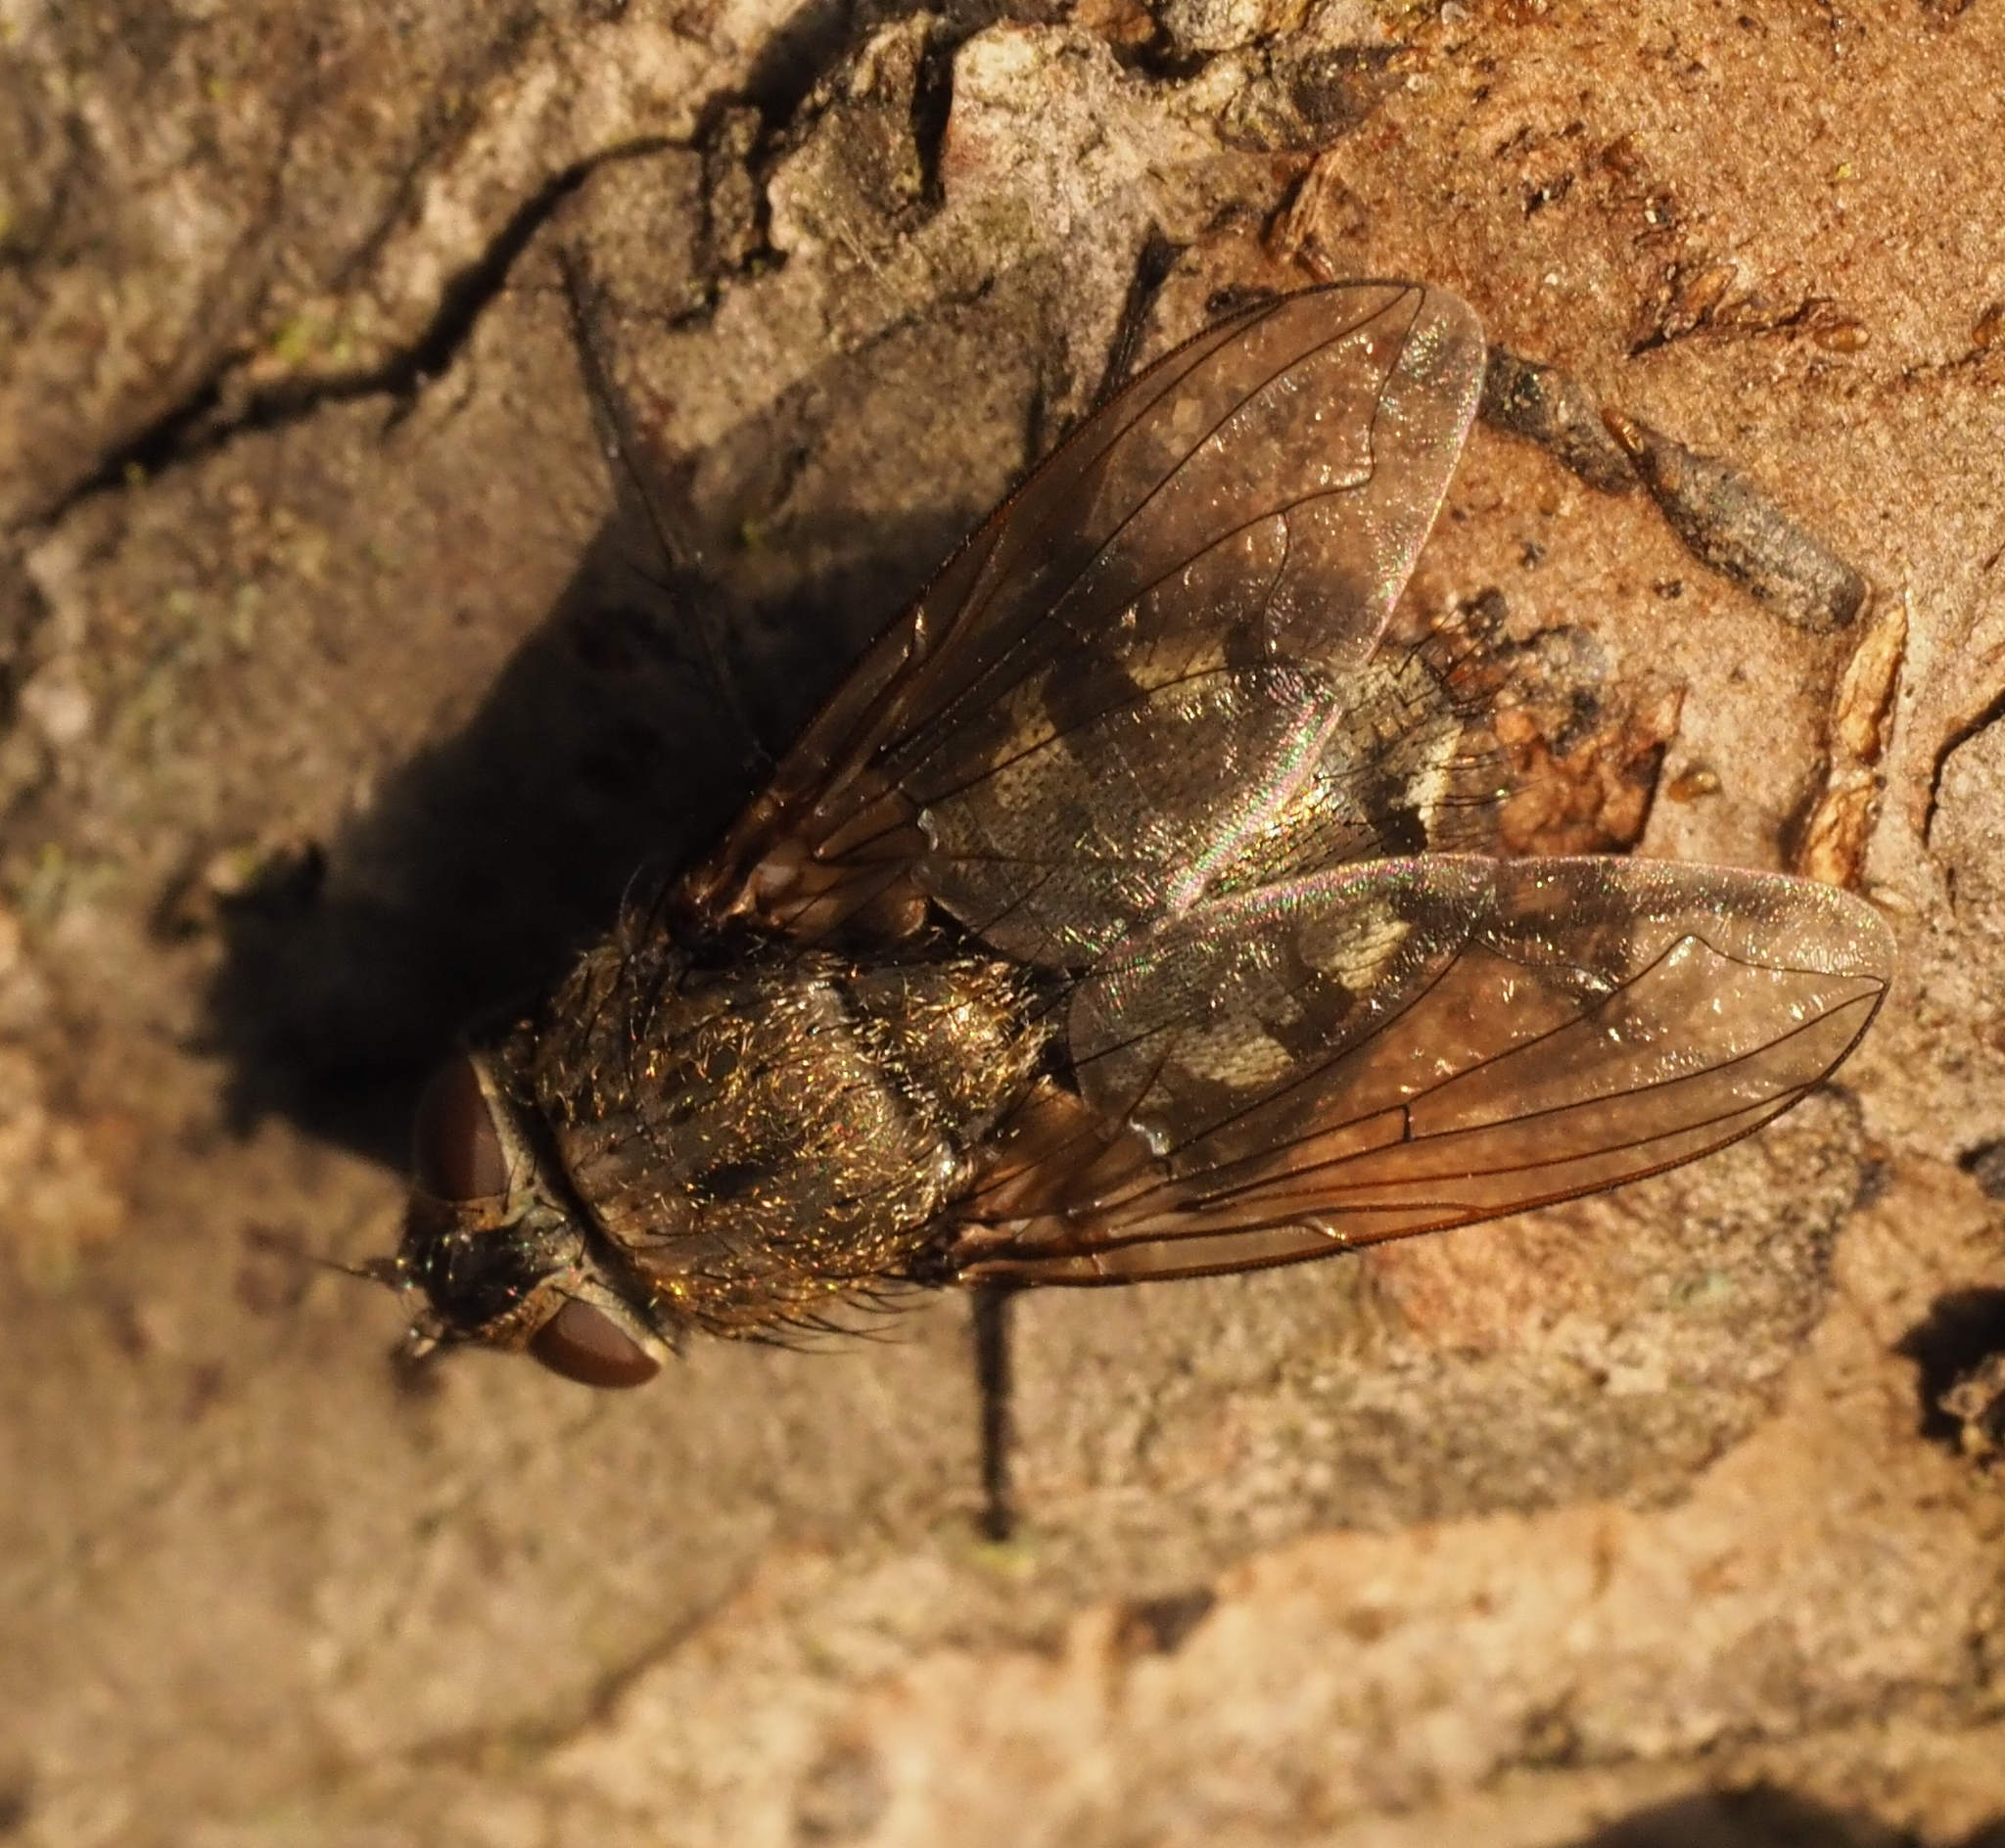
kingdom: Animalia
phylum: Arthropoda
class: Insecta
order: Diptera
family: Polleniidae
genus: Pollenia
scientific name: Pollenia
